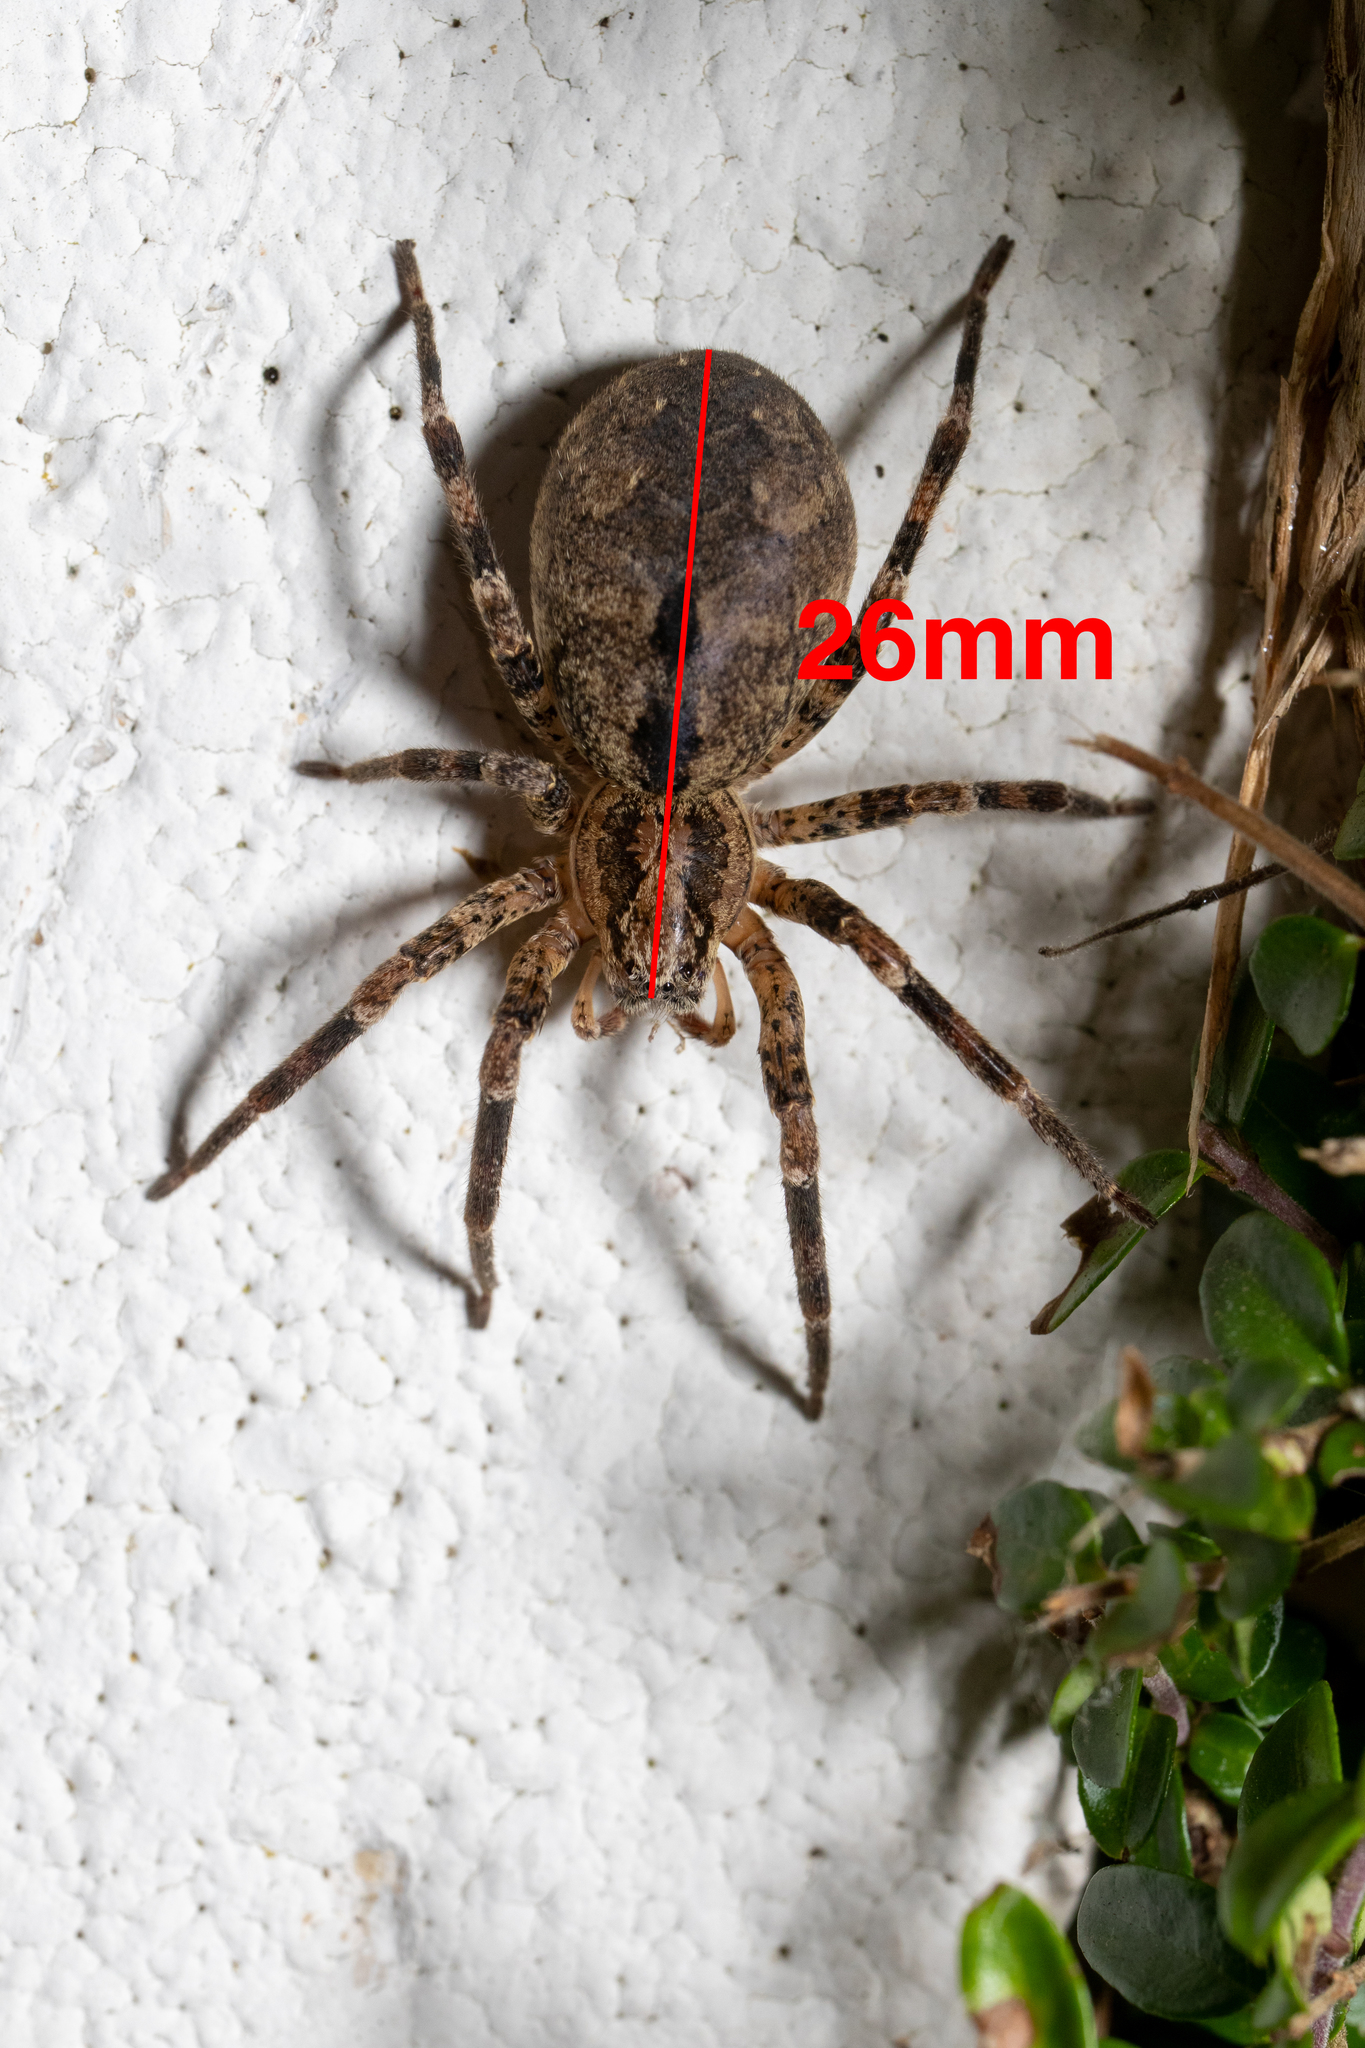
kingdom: Animalia
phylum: Arthropoda
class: Arachnida
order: Araneae
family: Zoropsidae
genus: Zoropsis
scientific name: Zoropsis spinimana
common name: Zoropsid spider
